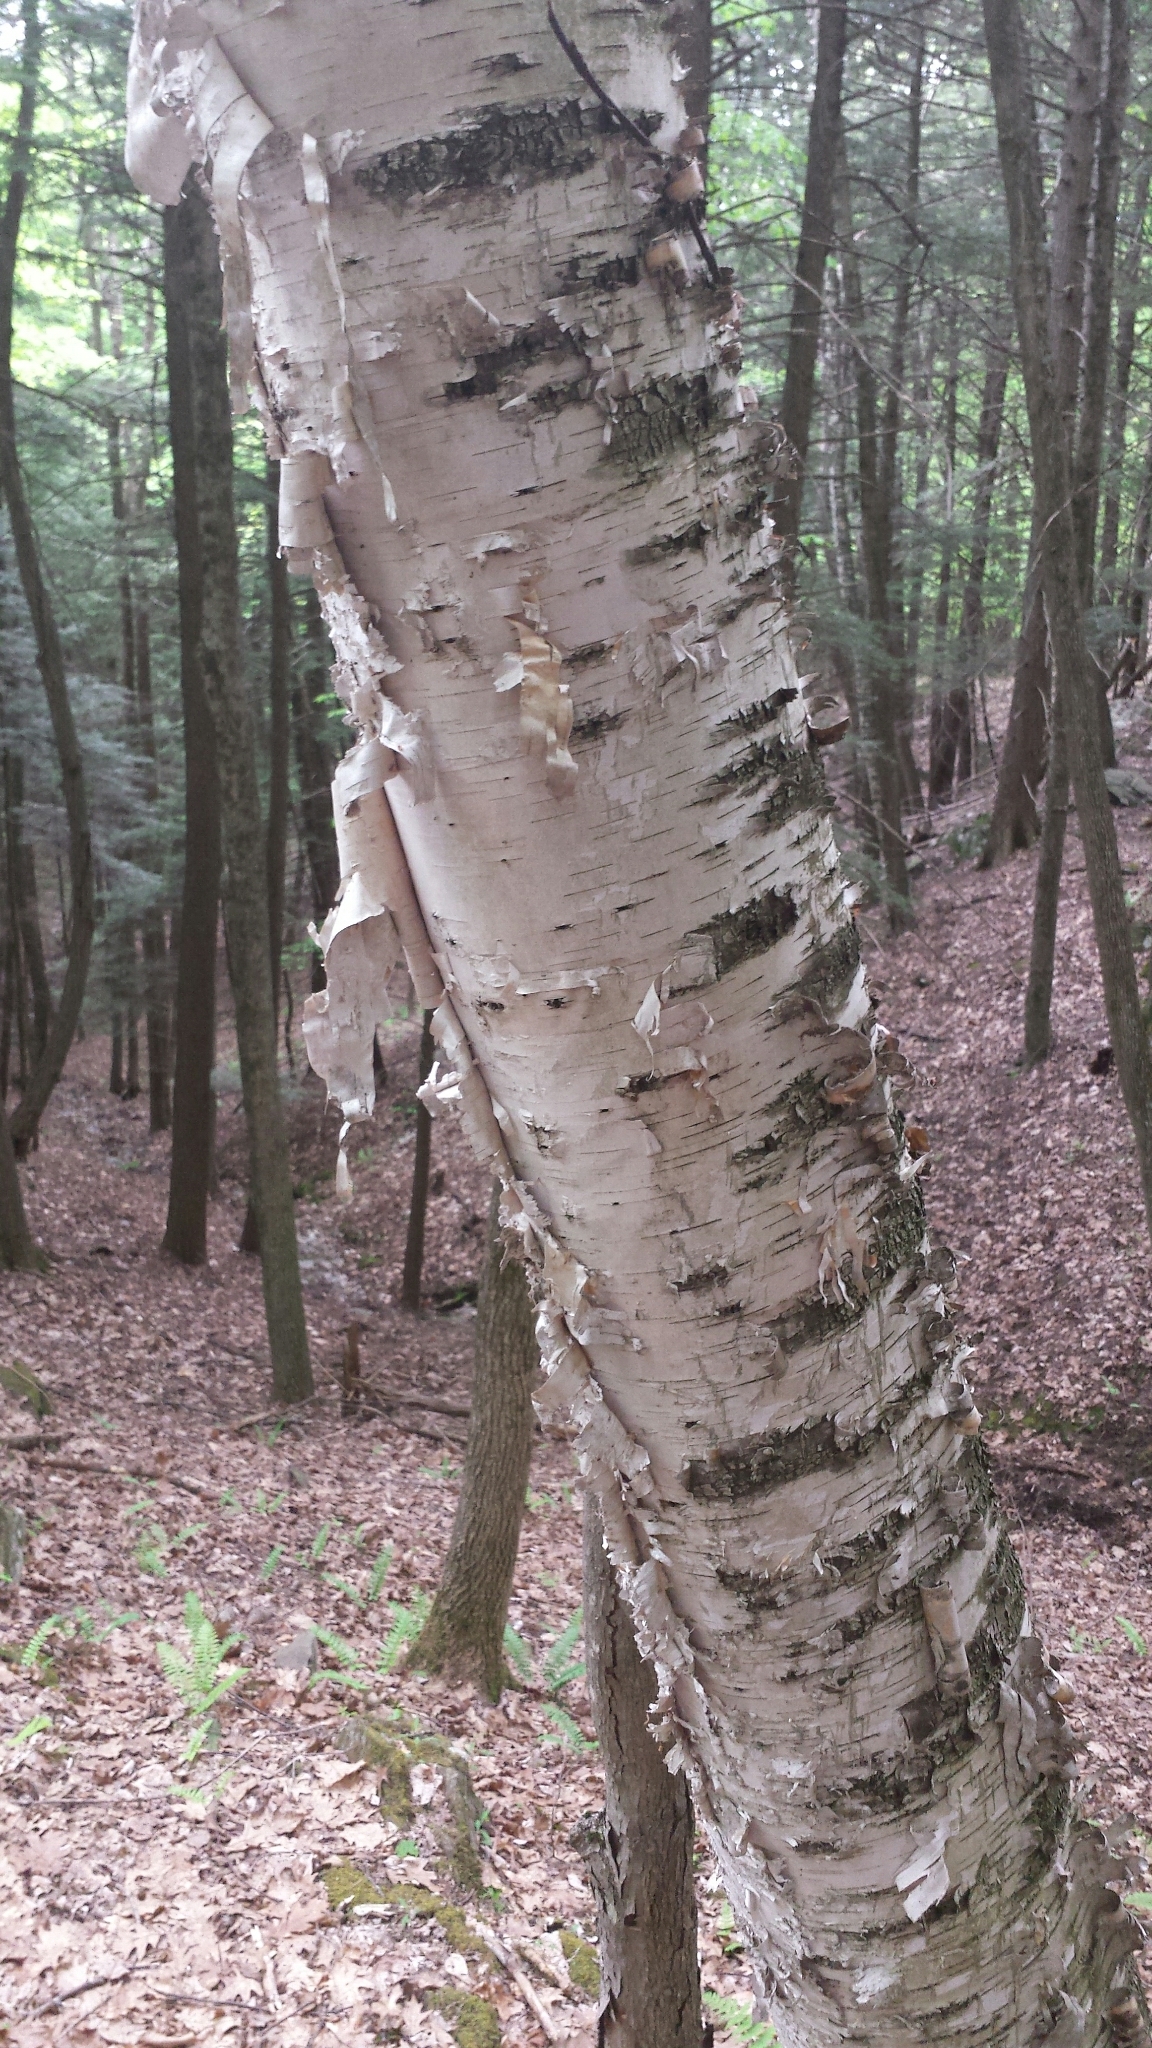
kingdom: Plantae
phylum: Tracheophyta
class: Magnoliopsida
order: Fagales
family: Betulaceae
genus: Betula
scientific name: Betula papyrifera
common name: Paper birch
